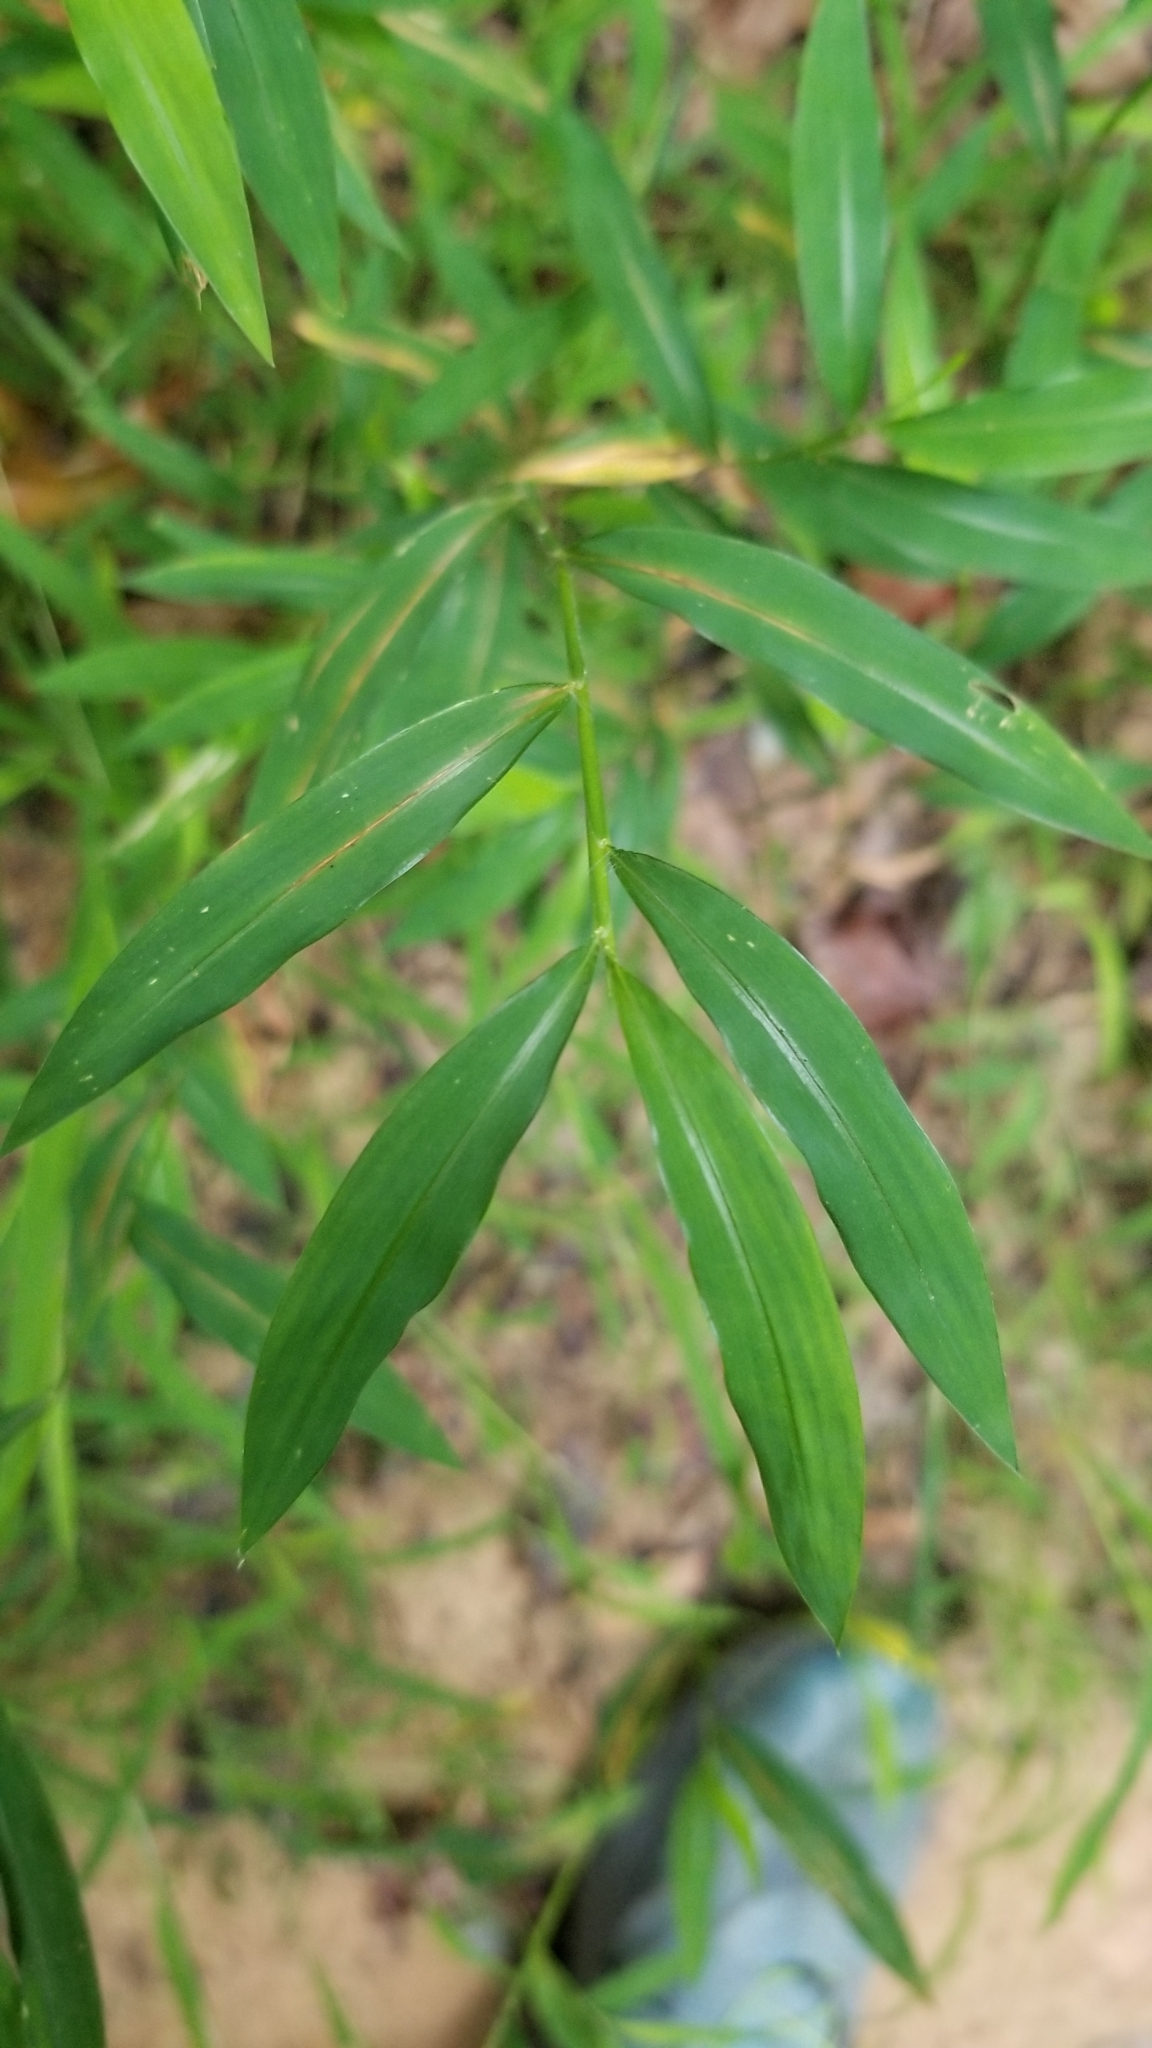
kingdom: Plantae
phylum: Tracheophyta
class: Liliopsida
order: Poales
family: Poaceae
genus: Microstegium
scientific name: Microstegium vimineum
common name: Japanese stiltgrass
